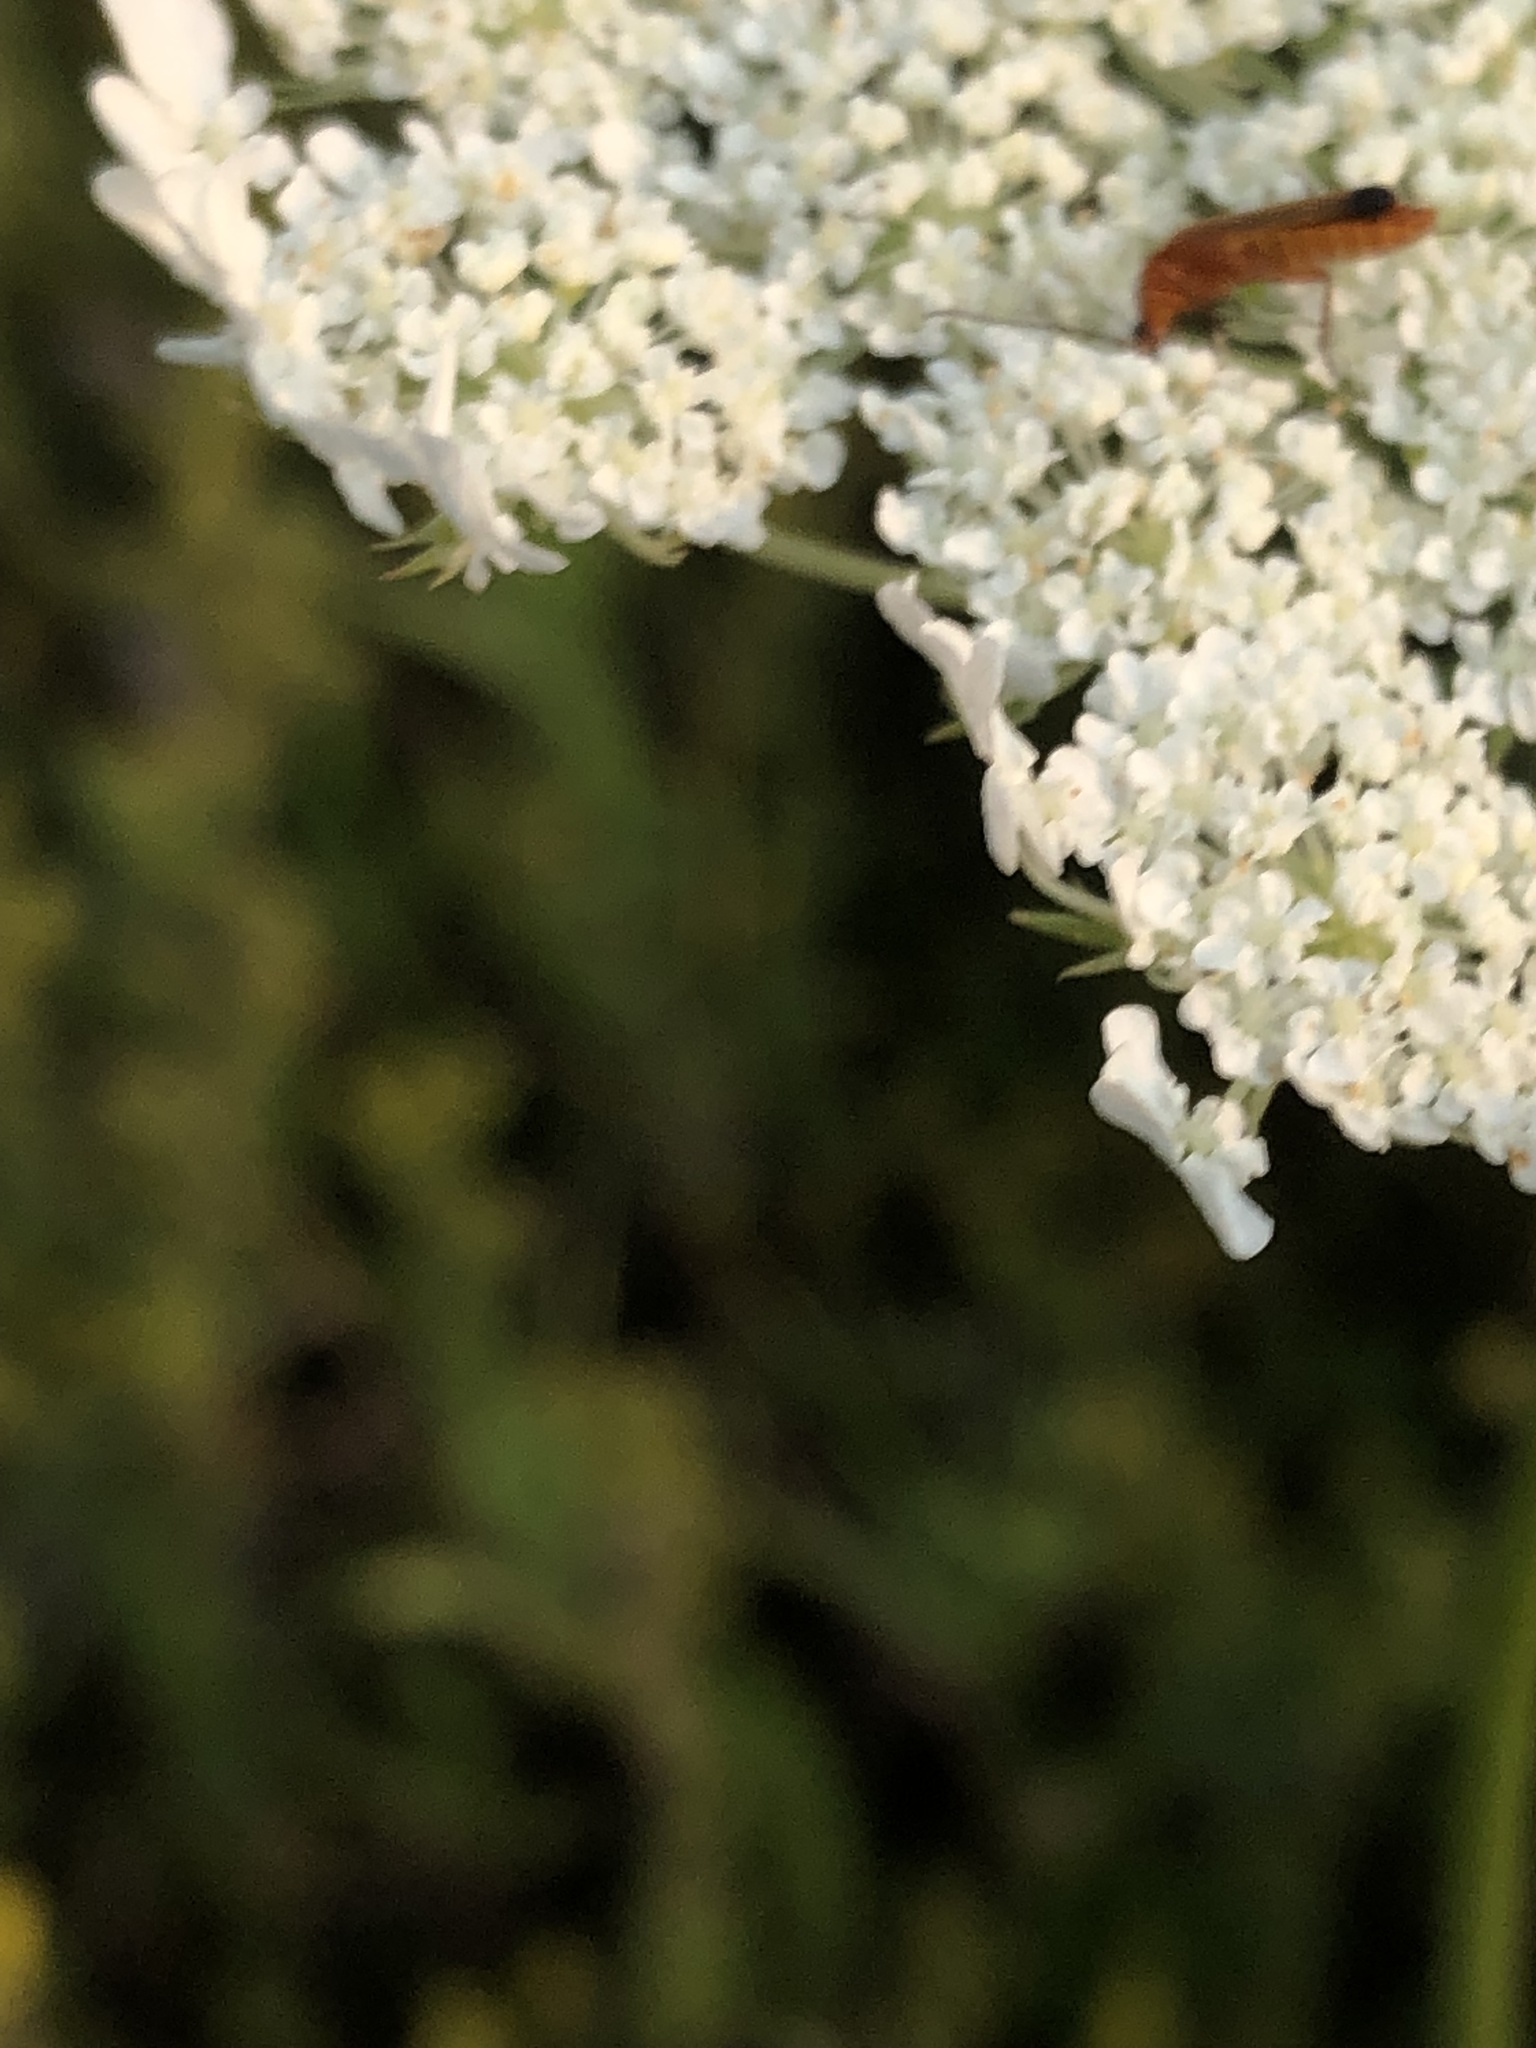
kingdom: Animalia
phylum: Arthropoda
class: Insecta
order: Coleoptera
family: Cantharidae
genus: Rhagonycha
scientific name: Rhagonycha fulva
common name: Common red soldier beetle
